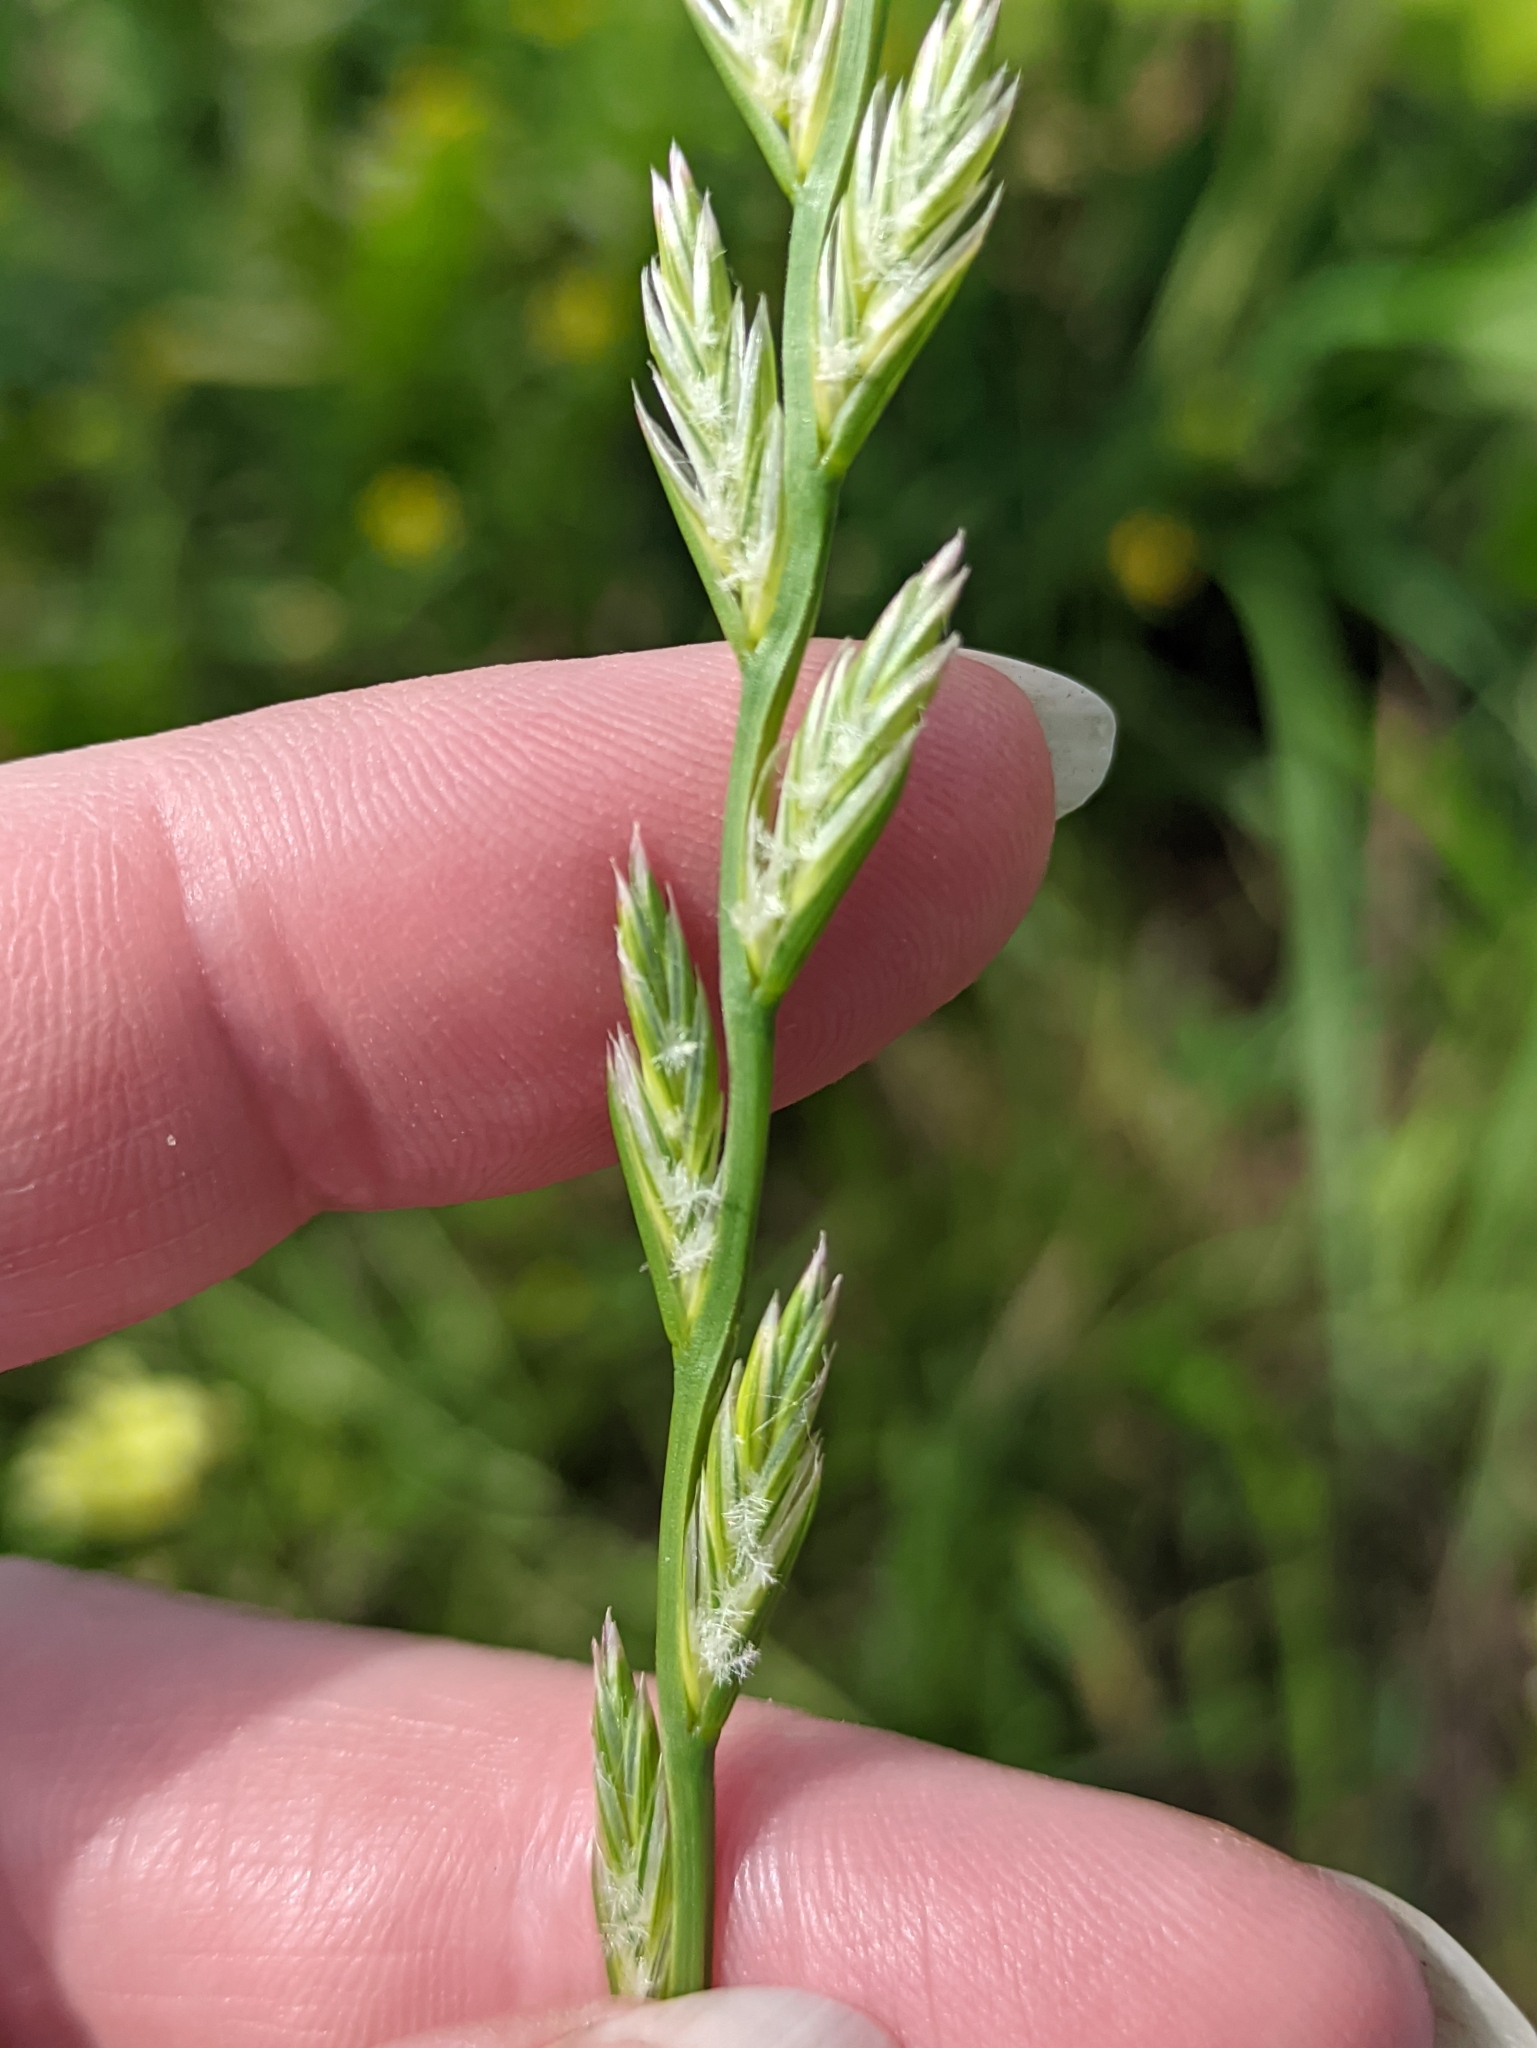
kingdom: Plantae
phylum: Tracheophyta
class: Liliopsida
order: Poales
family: Poaceae
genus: Lolium
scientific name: Lolium multiflorum
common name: Annual ryegrass
